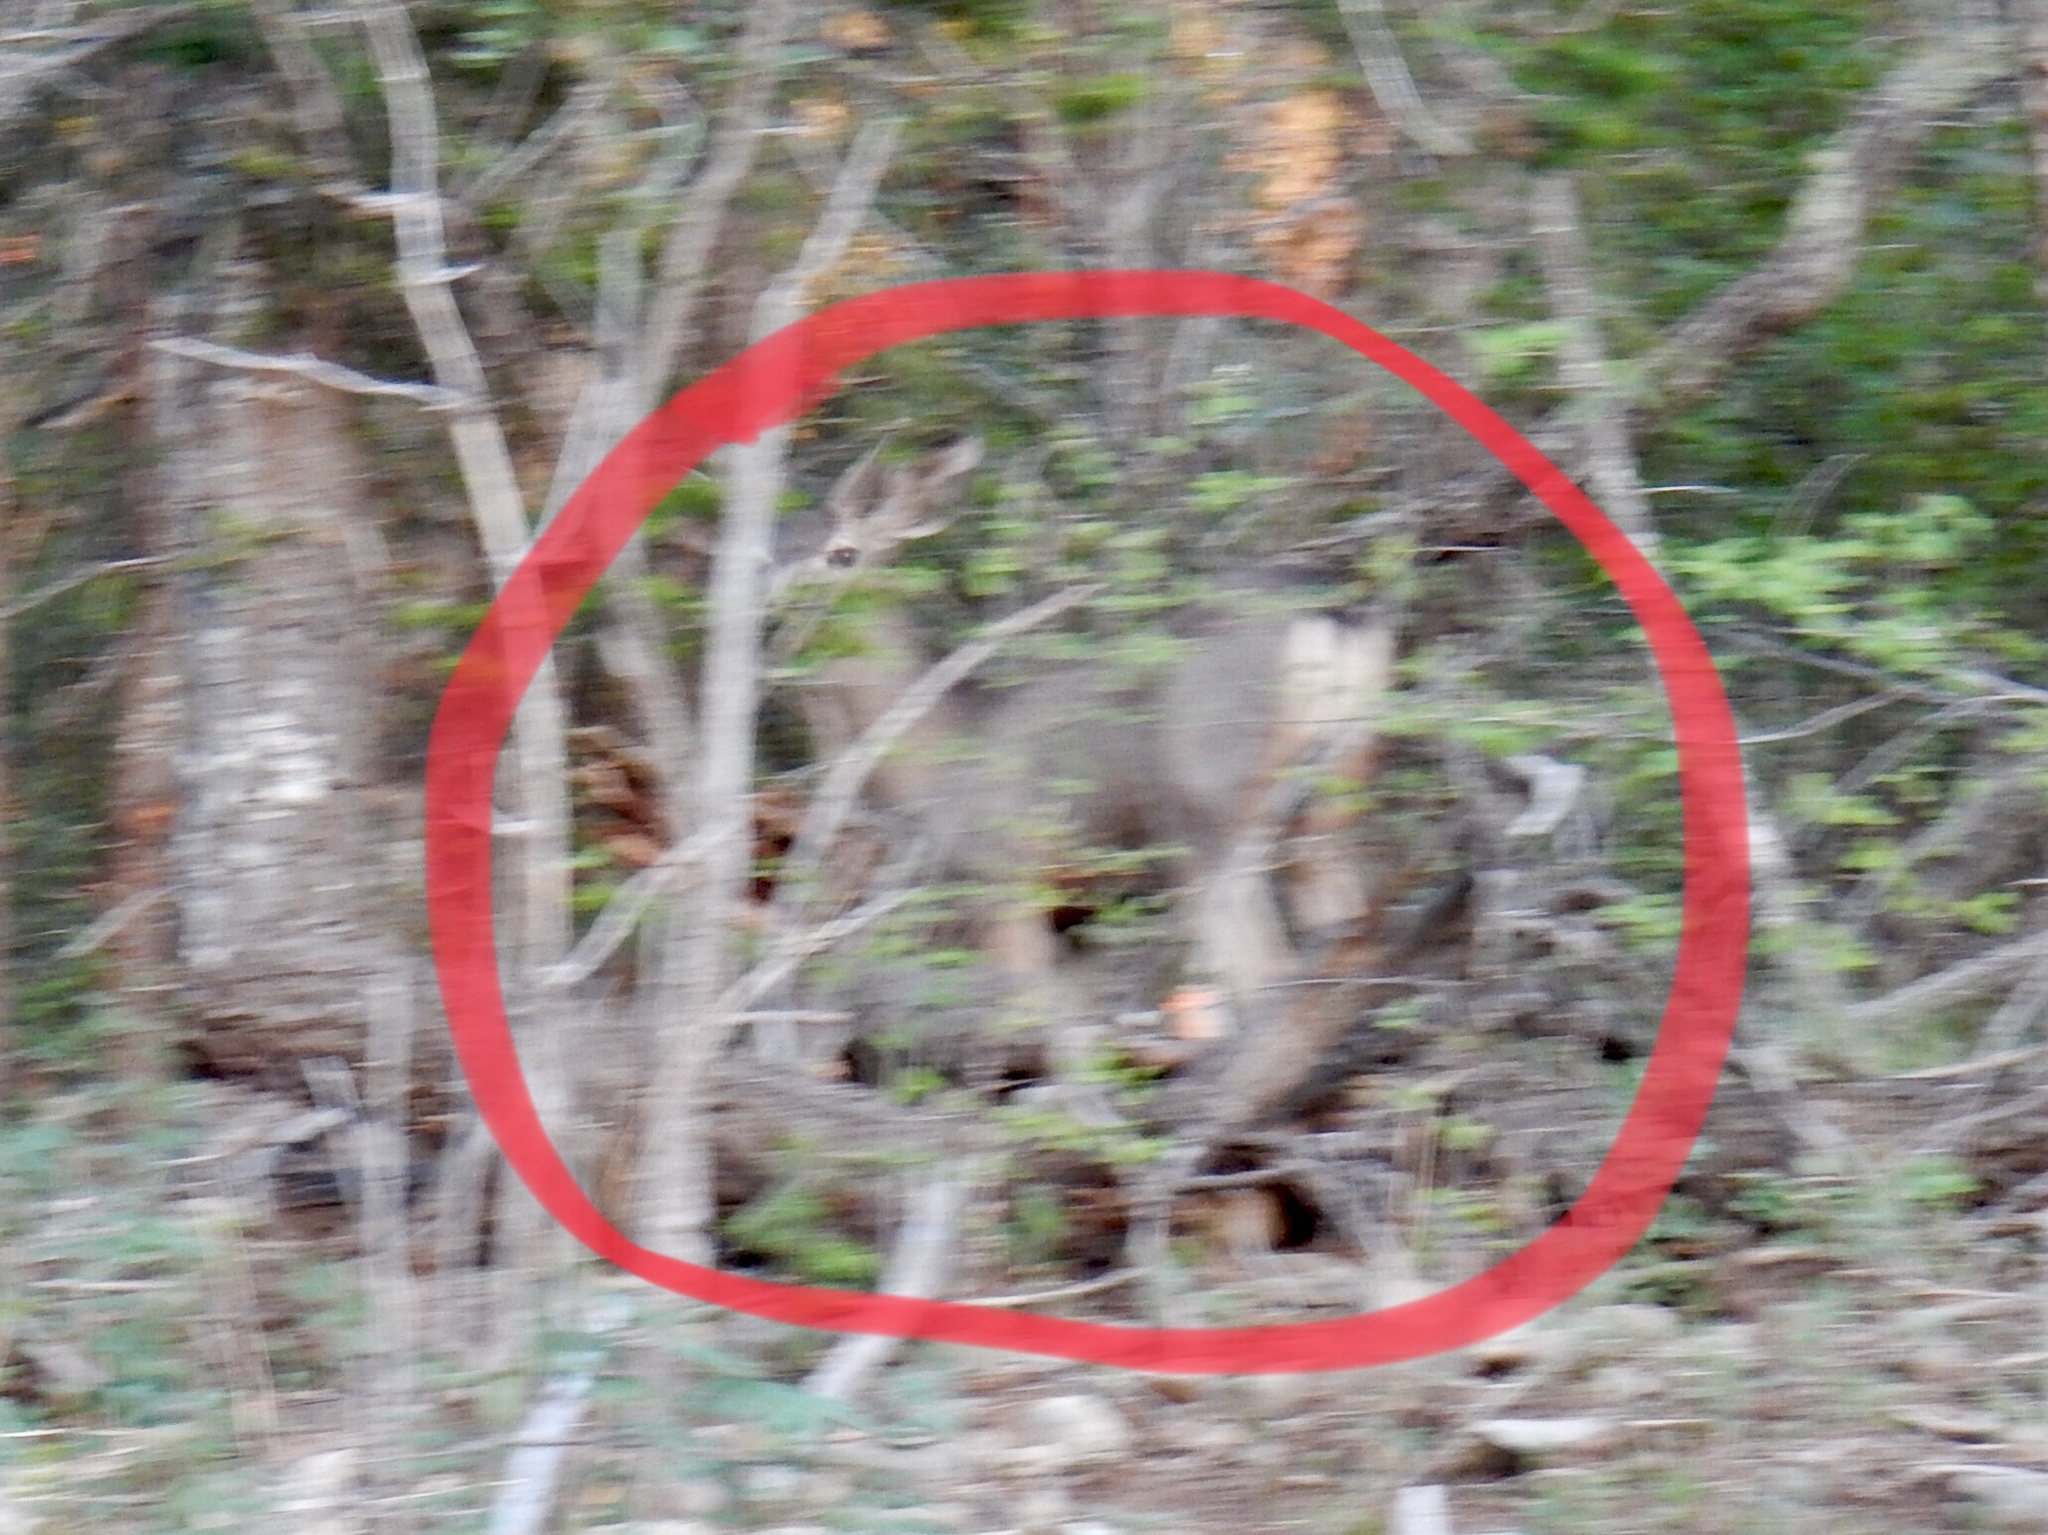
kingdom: Animalia
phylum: Chordata
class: Mammalia
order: Artiodactyla
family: Cervidae
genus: Odocoileus
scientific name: Odocoileus hemionus
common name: Mule deer
